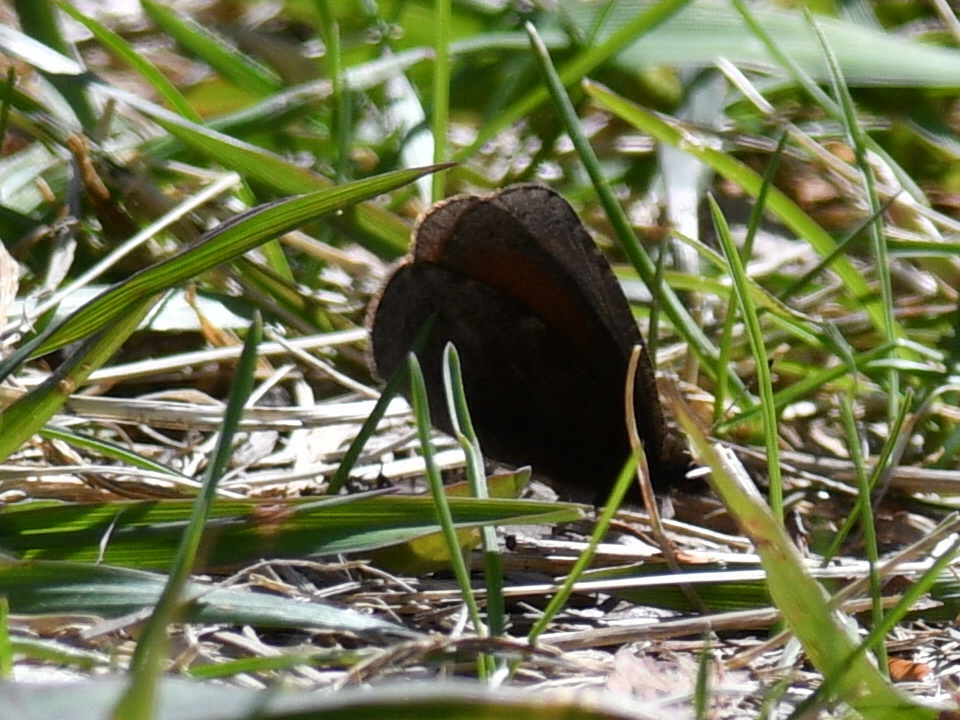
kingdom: Animalia
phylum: Arthropoda
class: Insecta
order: Lepidoptera
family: Nymphalidae
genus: Erebia
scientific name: Erebia discoidalis
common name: Red-disked alpine
